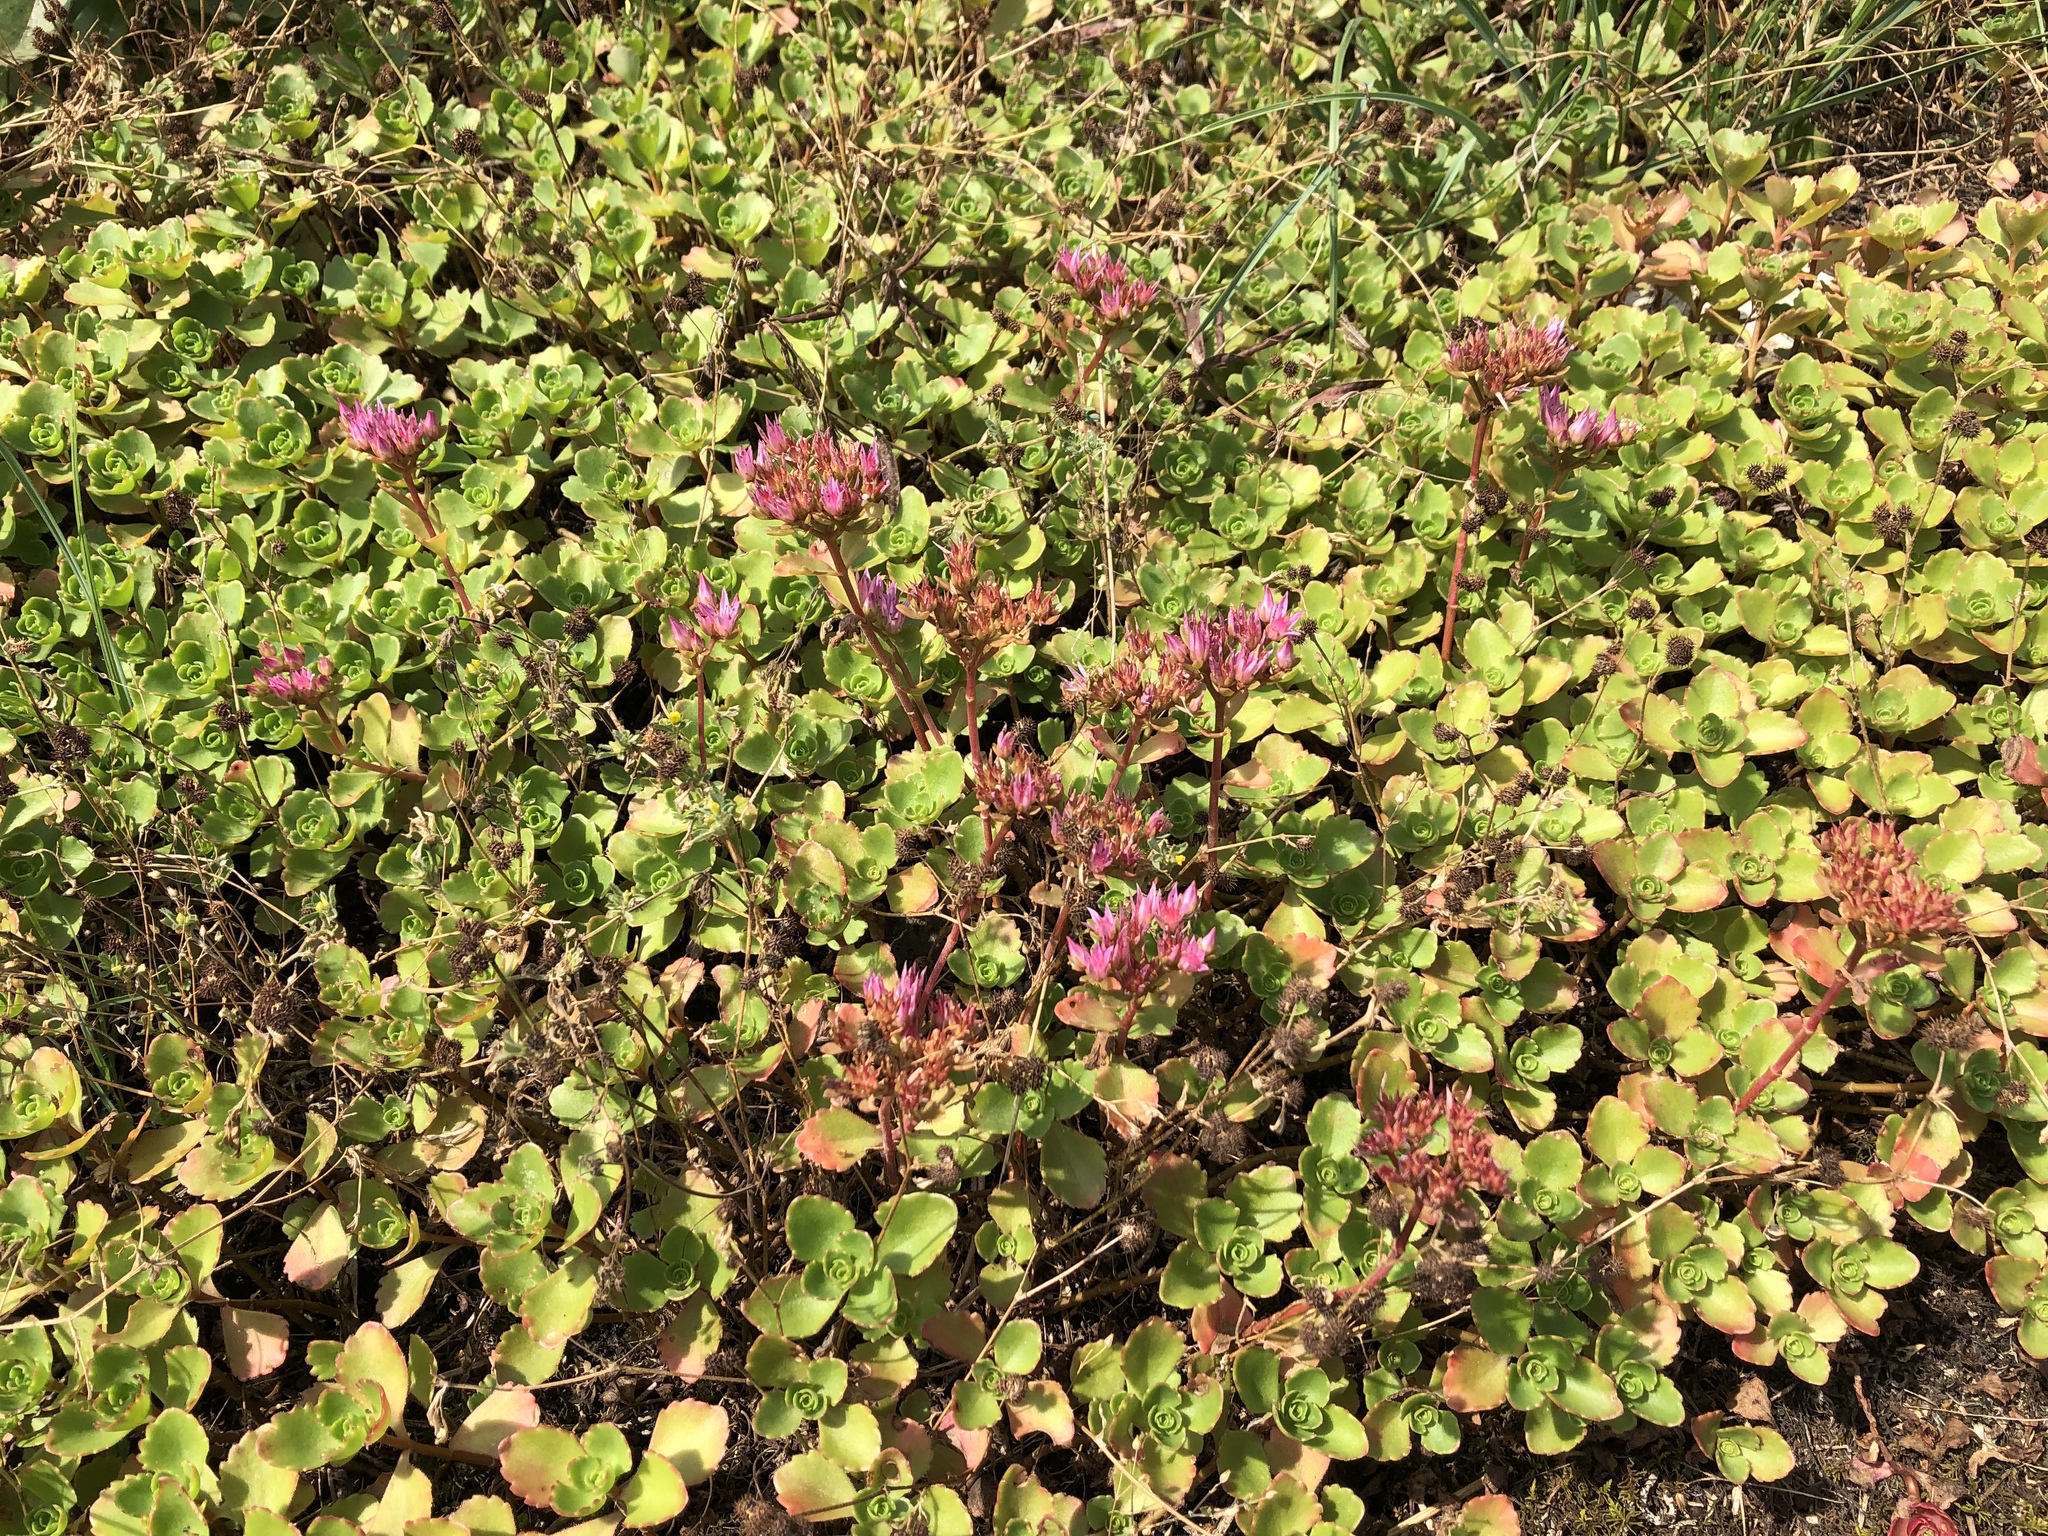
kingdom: Plantae
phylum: Tracheophyta
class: Magnoliopsida
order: Saxifragales
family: Crassulaceae
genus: Phedimus
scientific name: Phedimus spurius
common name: Caucasian stonecrop
